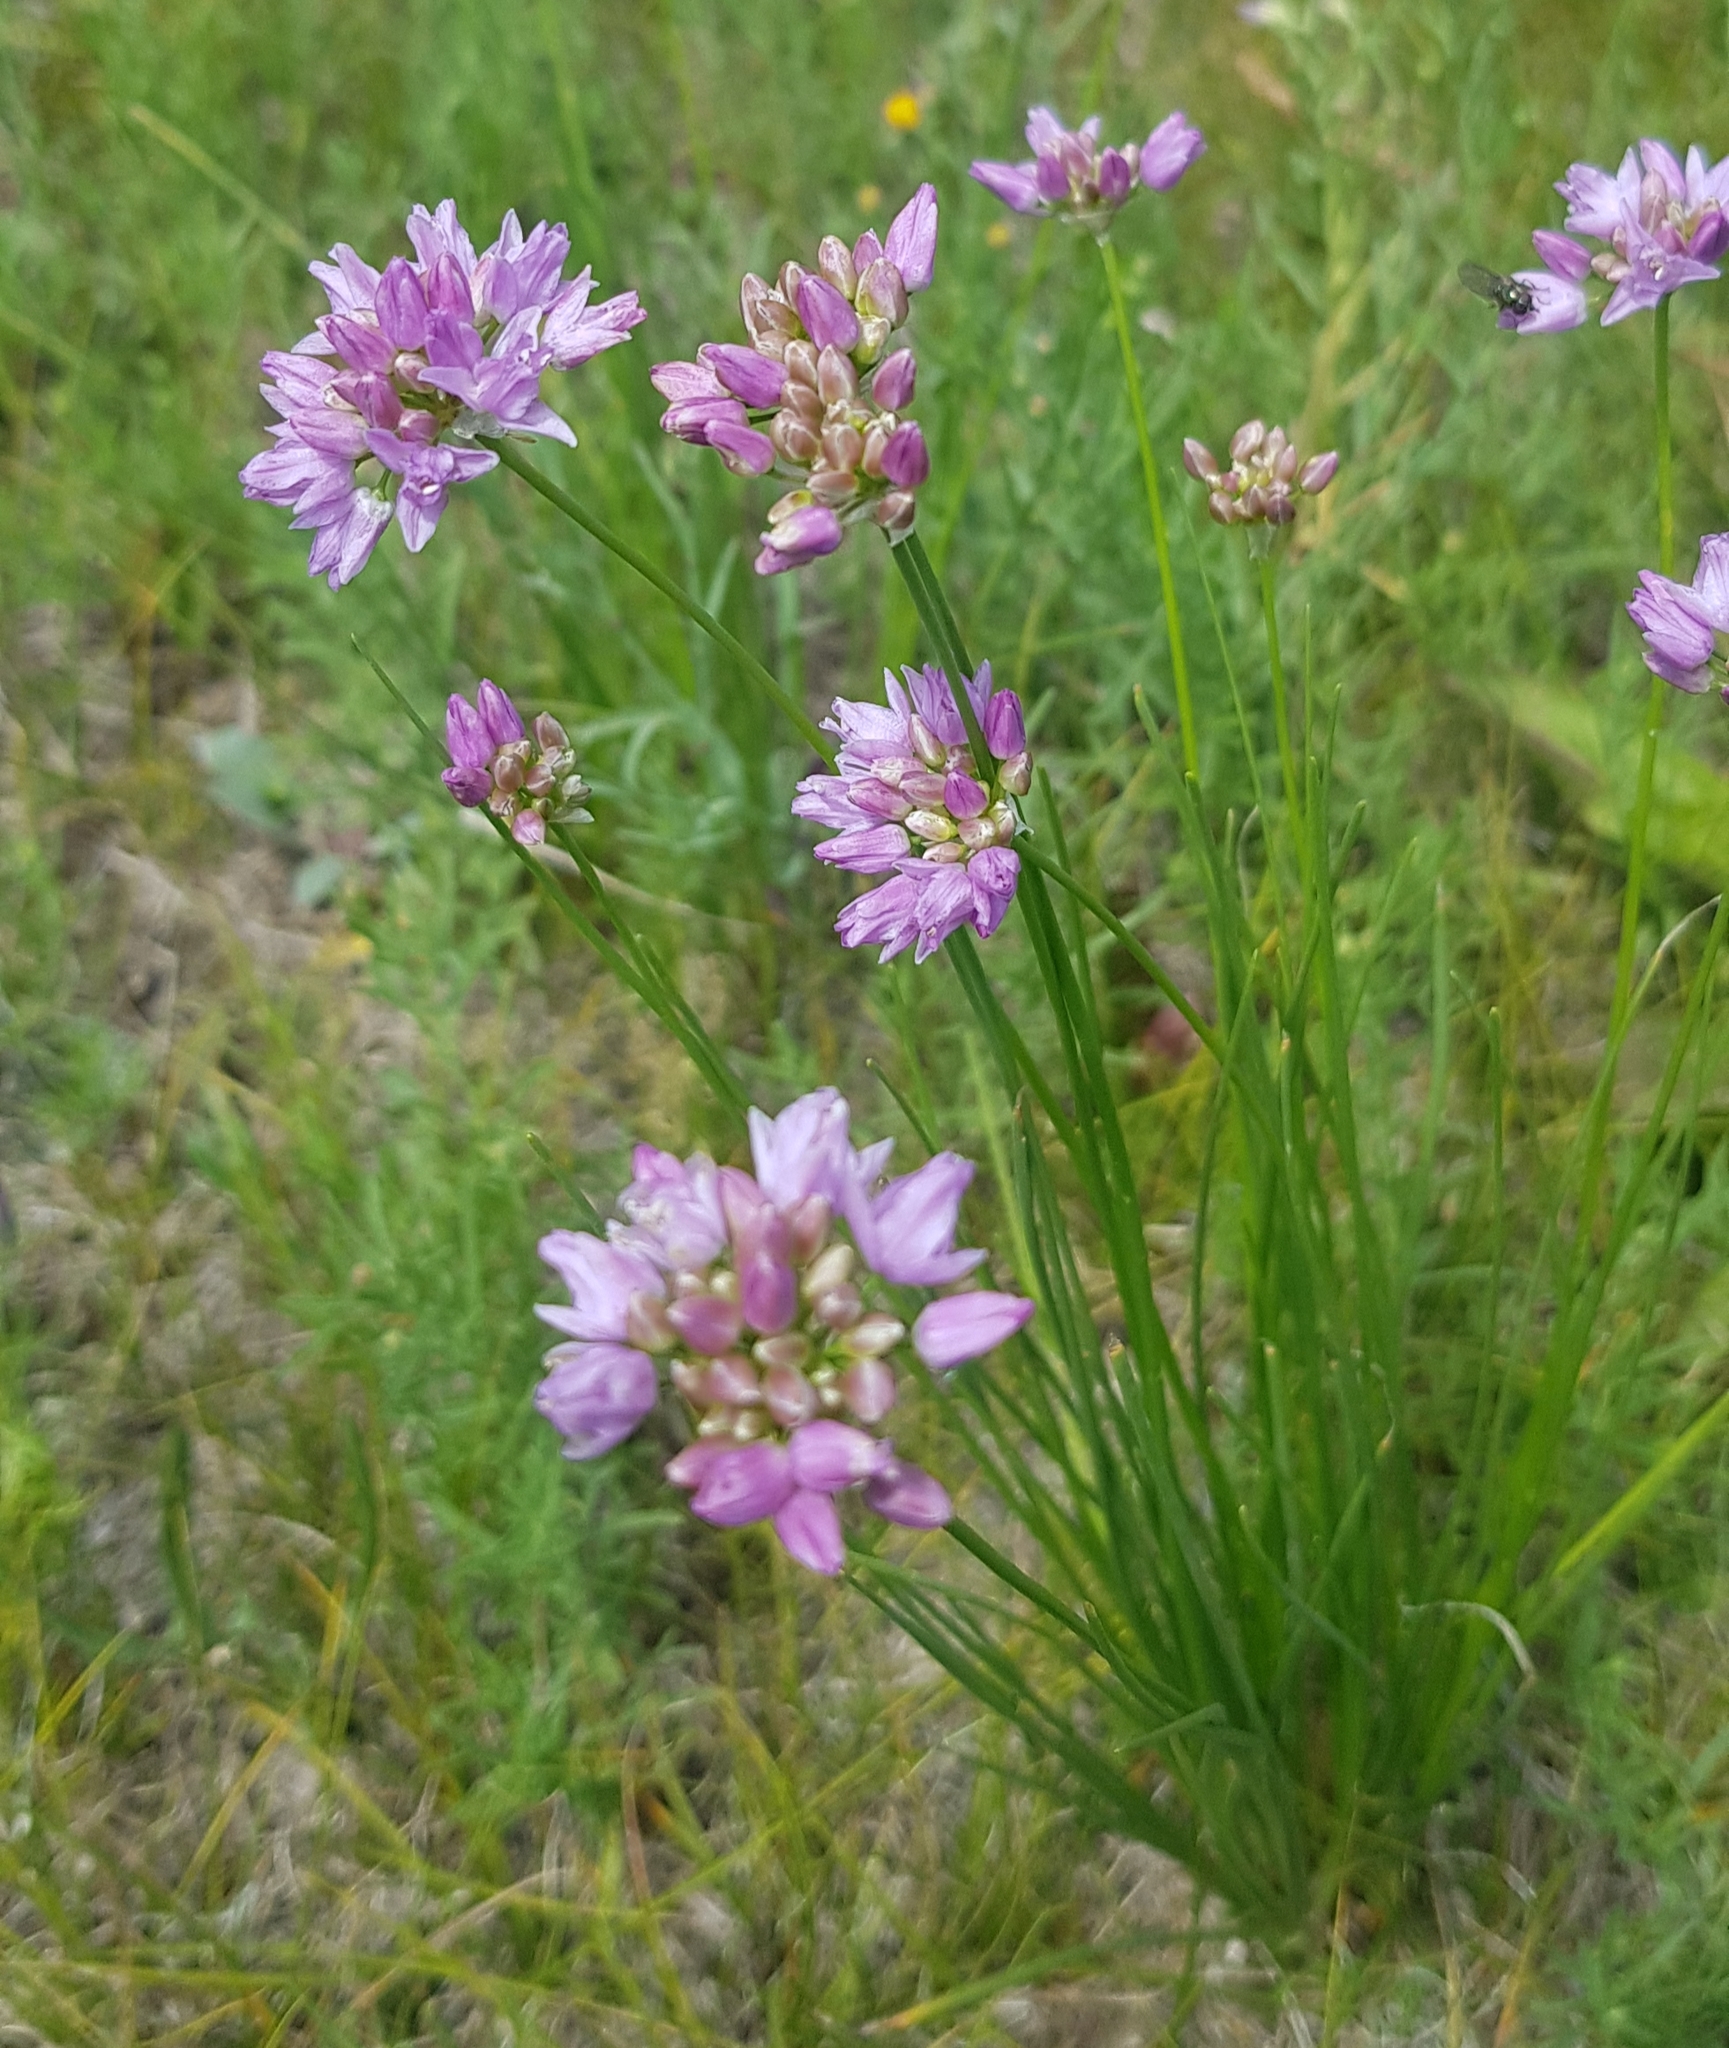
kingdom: Plantae
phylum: Tracheophyta
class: Liliopsida
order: Asparagales
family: Amaryllidaceae
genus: Allium
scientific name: Allium anisopodium
